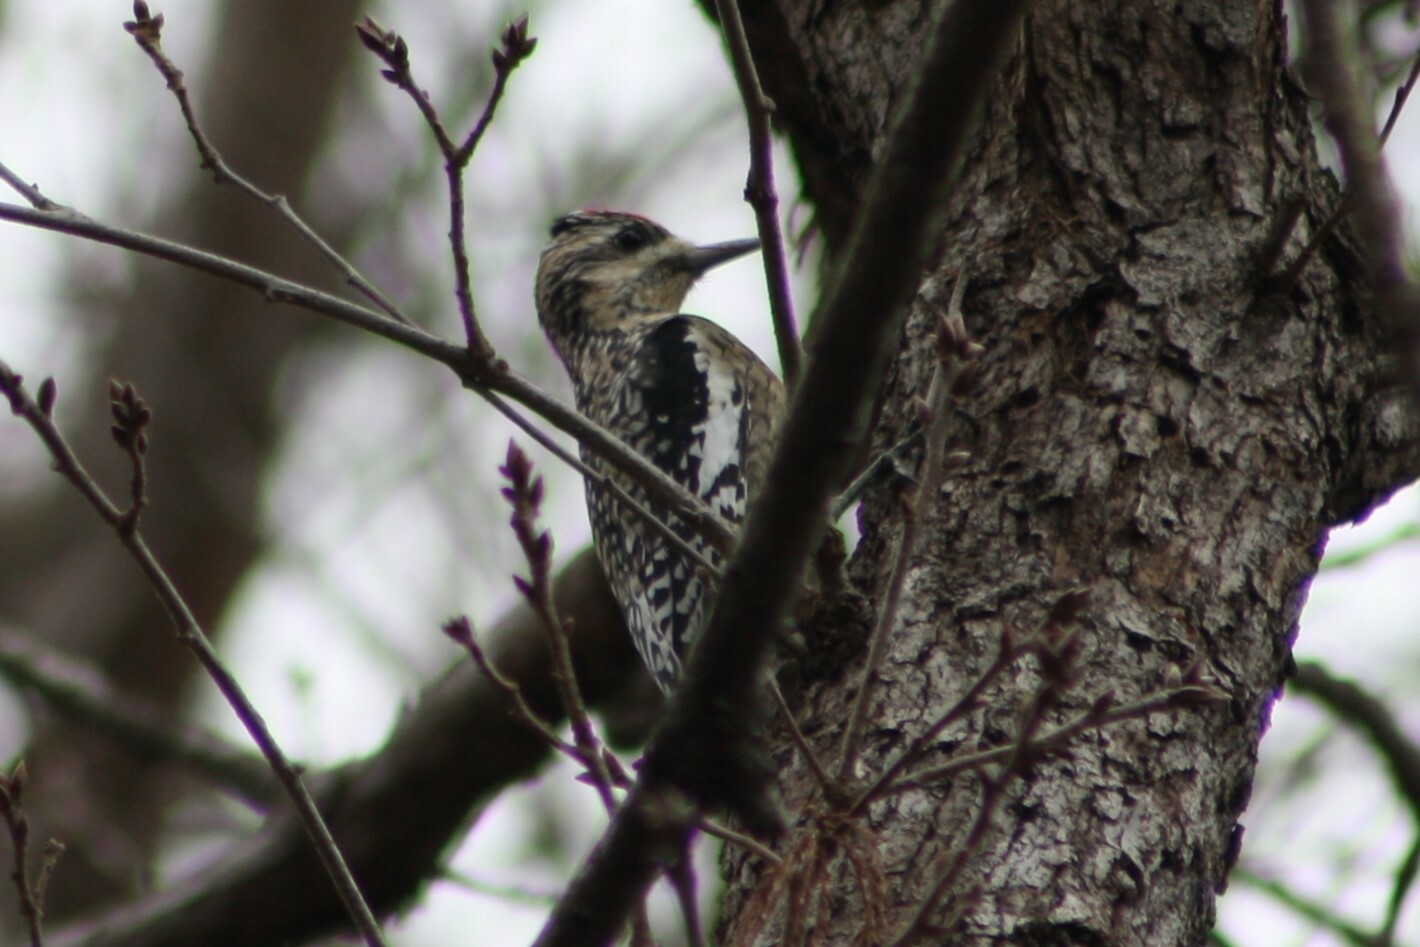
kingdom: Animalia
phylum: Chordata
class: Aves
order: Piciformes
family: Picidae
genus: Sphyrapicus
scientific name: Sphyrapicus varius
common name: Yellow-bellied sapsucker
